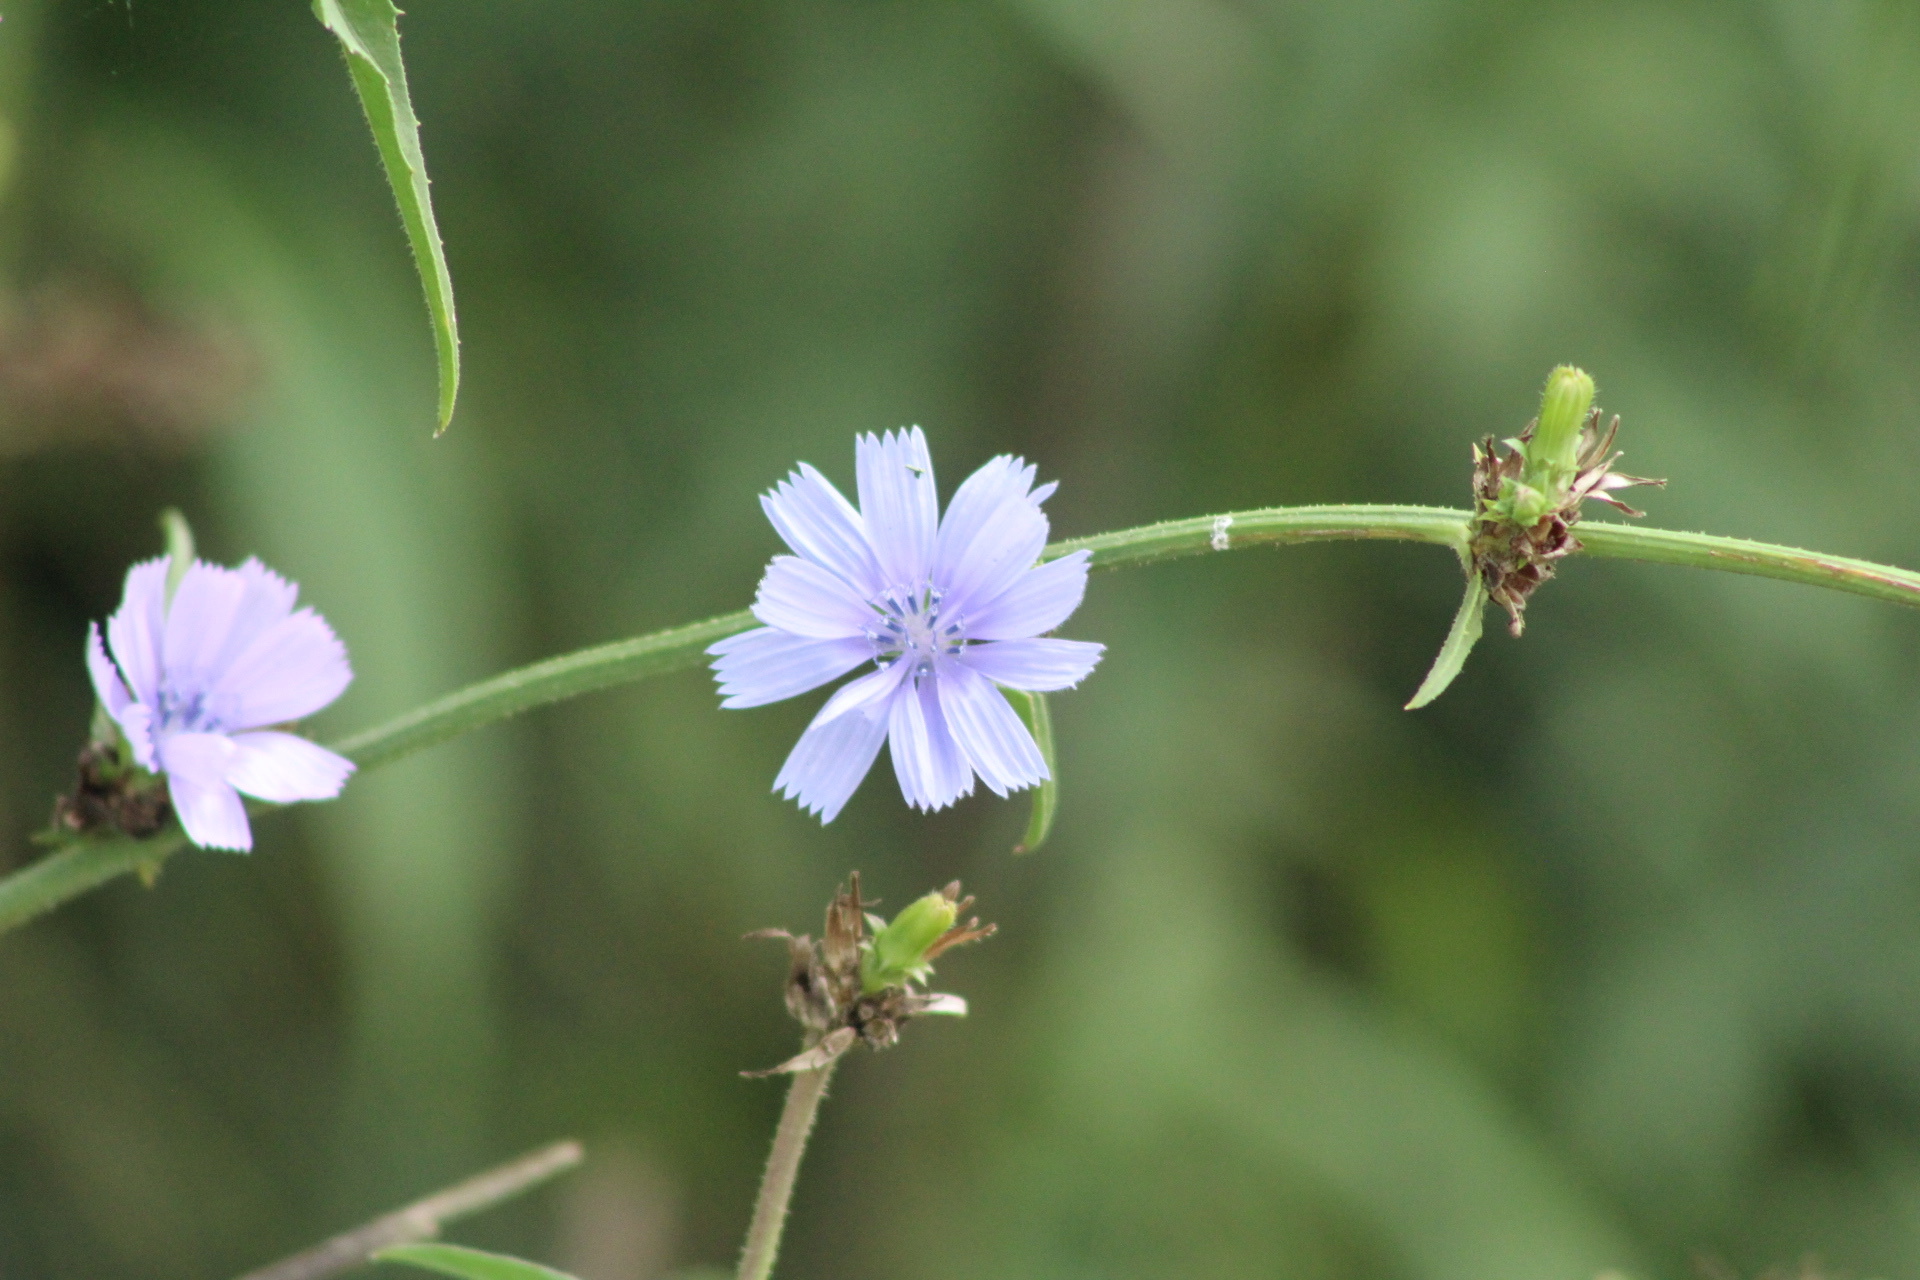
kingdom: Plantae
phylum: Tracheophyta
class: Magnoliopsida
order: Asterales
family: Asteraceae
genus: Cichorium
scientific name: Cichorium intybus
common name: Chicory
